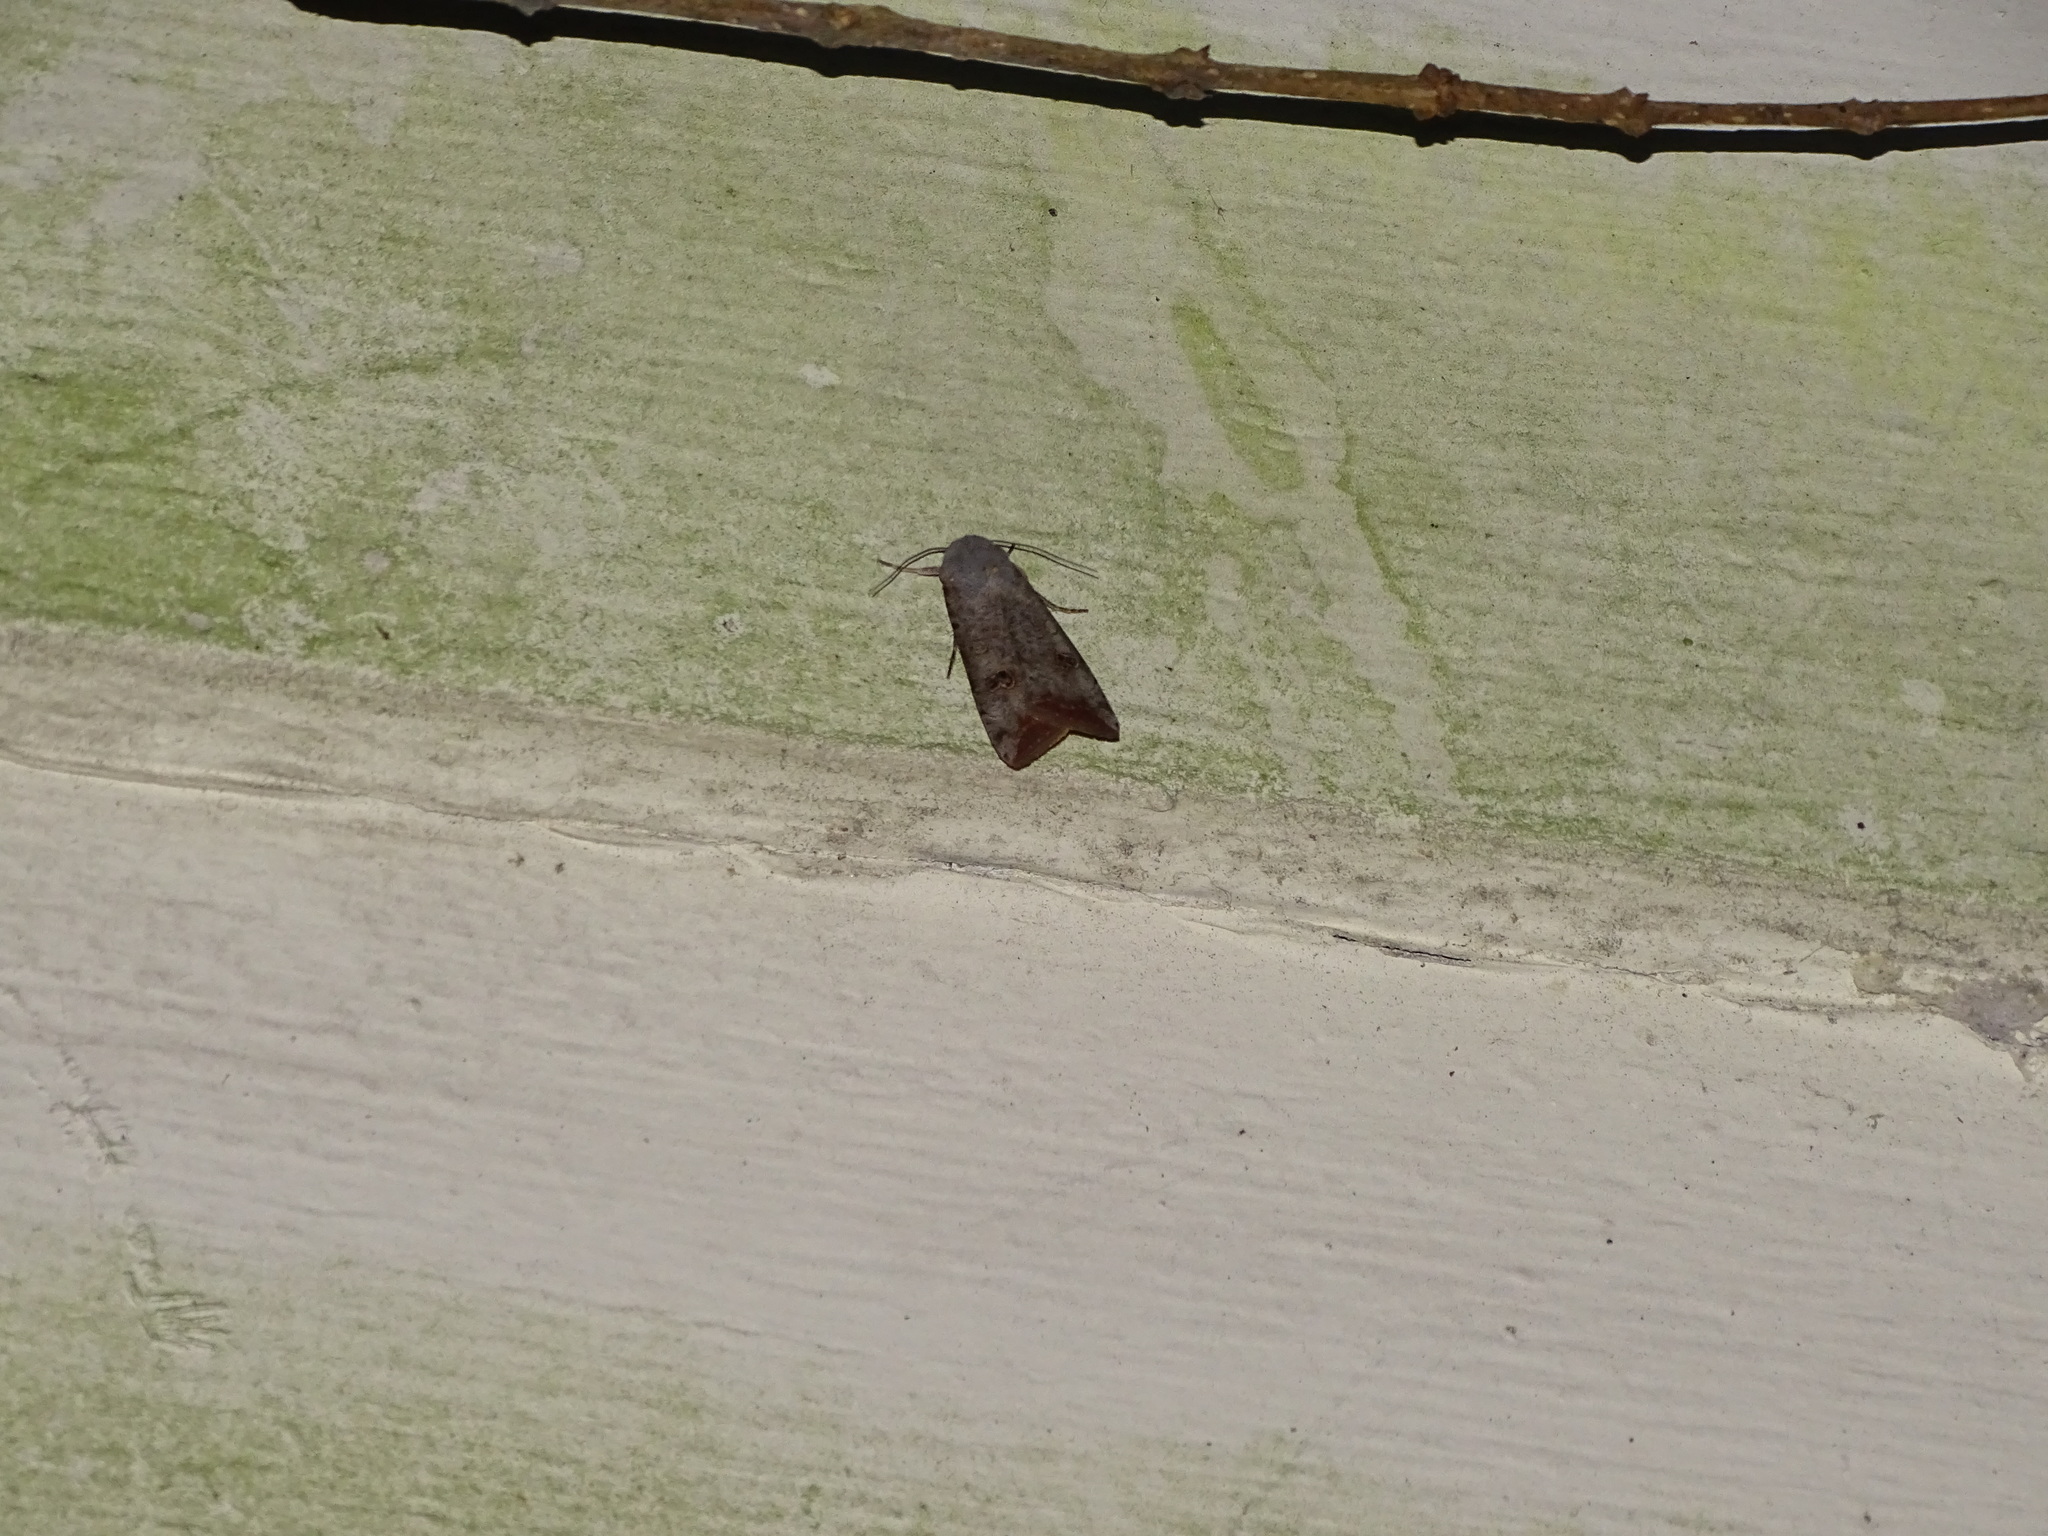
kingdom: Animalia
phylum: Arthropoda
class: Insecta
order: Lepidoptera
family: Noctuidae
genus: Anicla
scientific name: Anicla infecta
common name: Green cutworm
